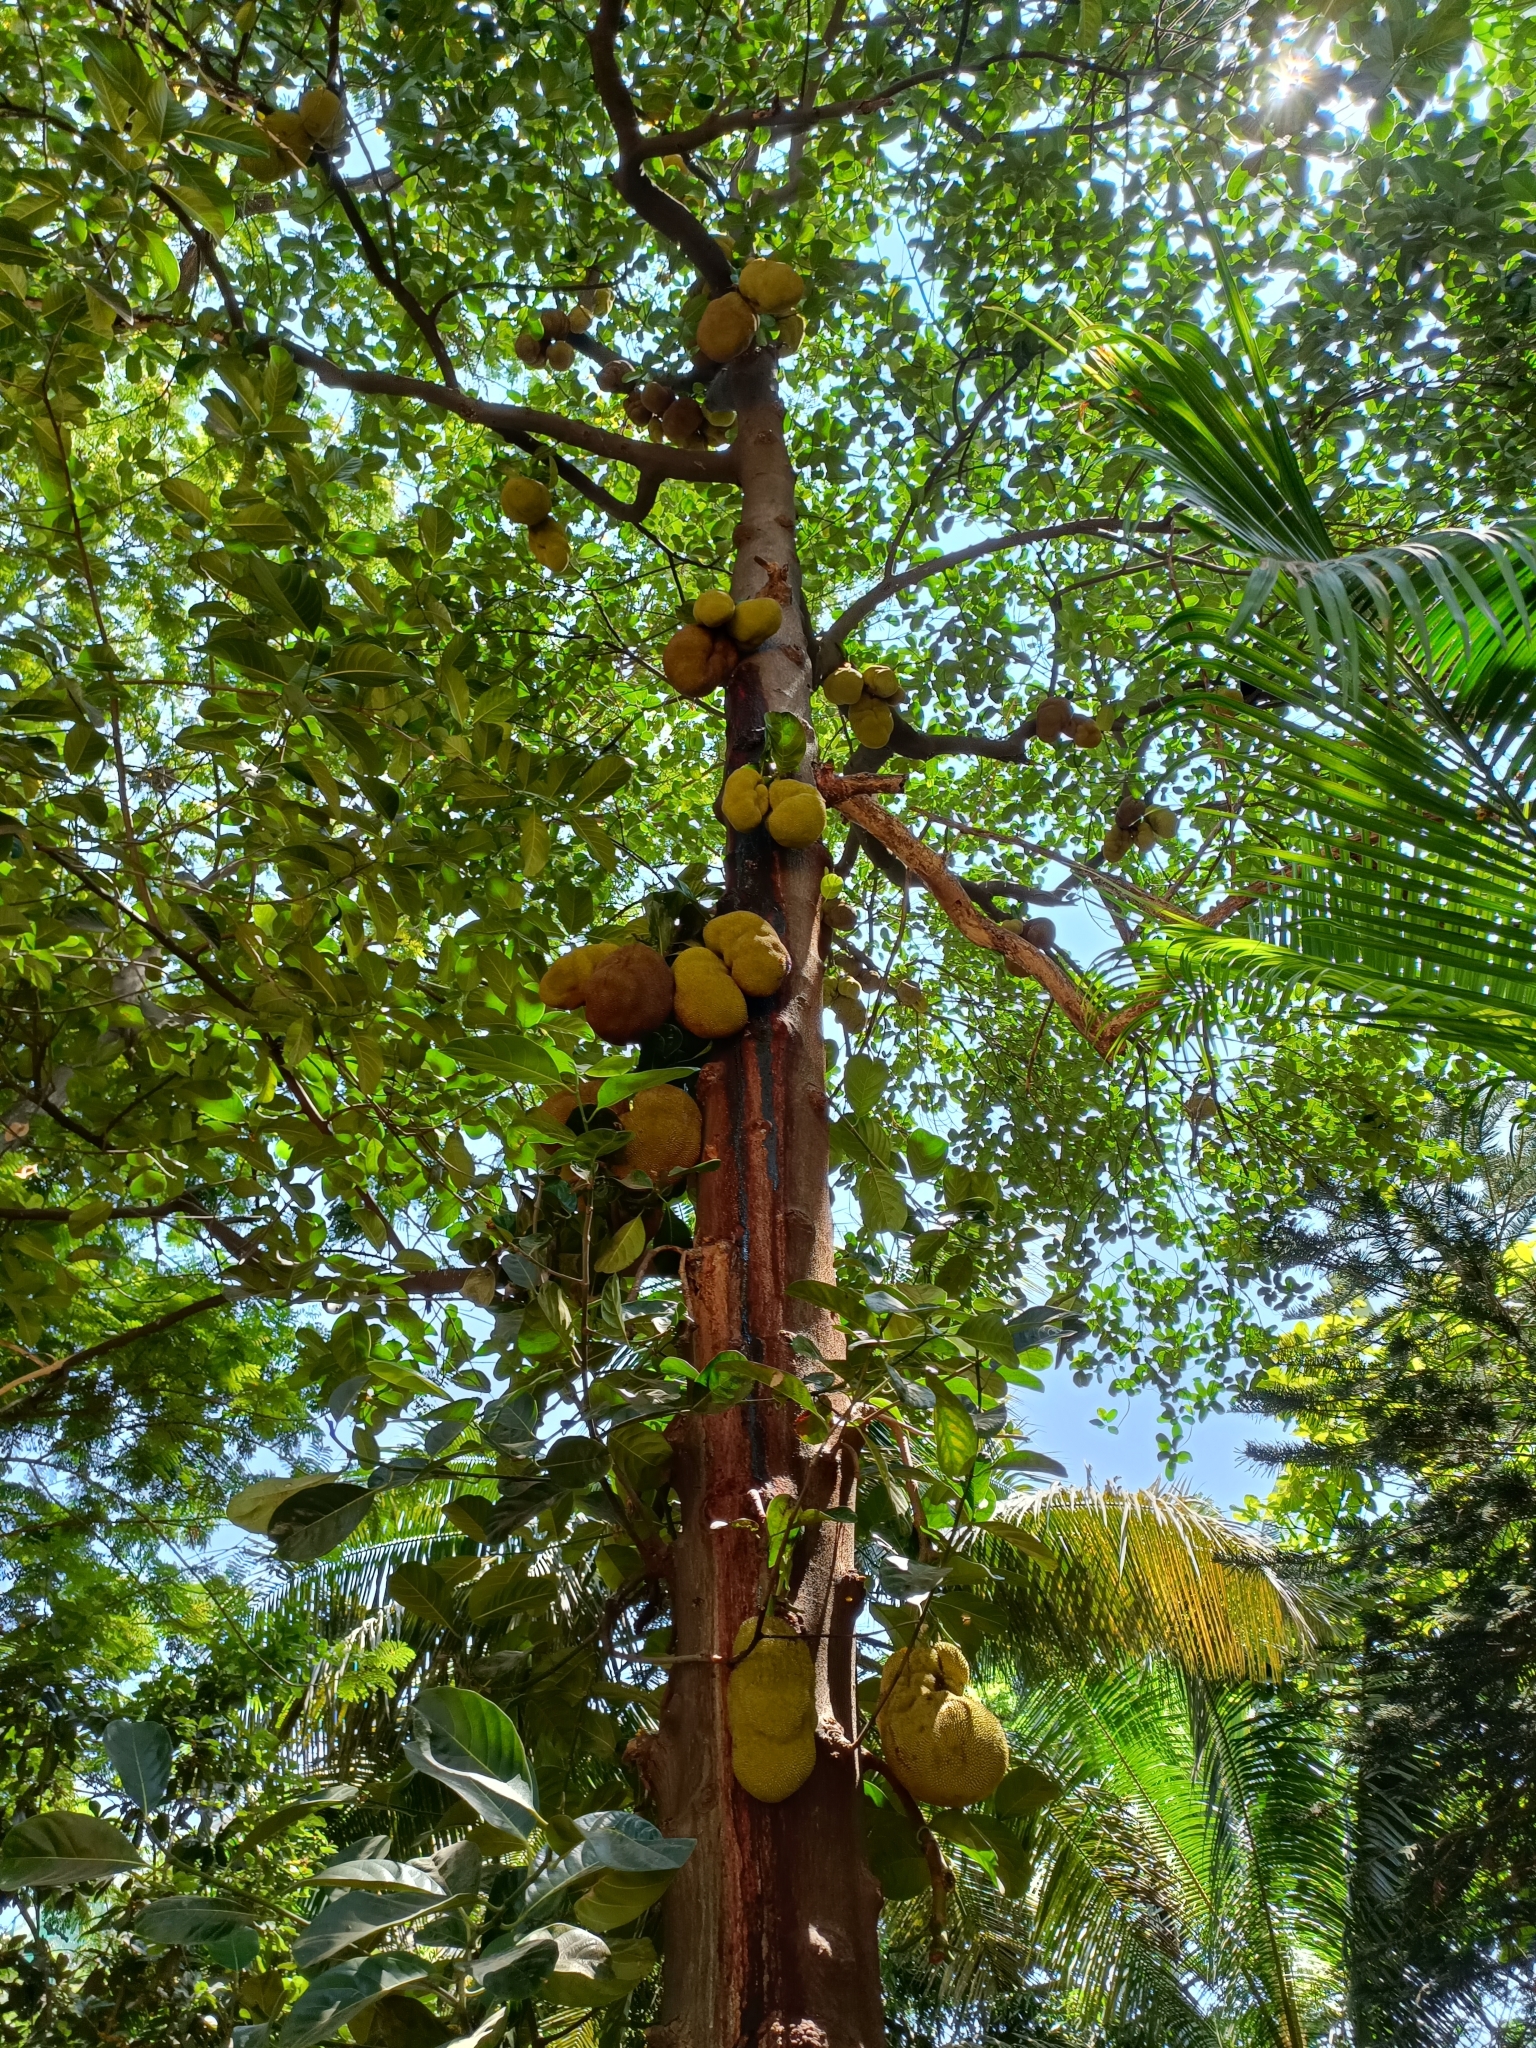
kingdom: Plantae
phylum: Tracheophyta
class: Magnoliopsida
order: Rosales
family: Moraceae
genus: Artocarpus
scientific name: Artocarpus heterophyllus
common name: Jackfruit
